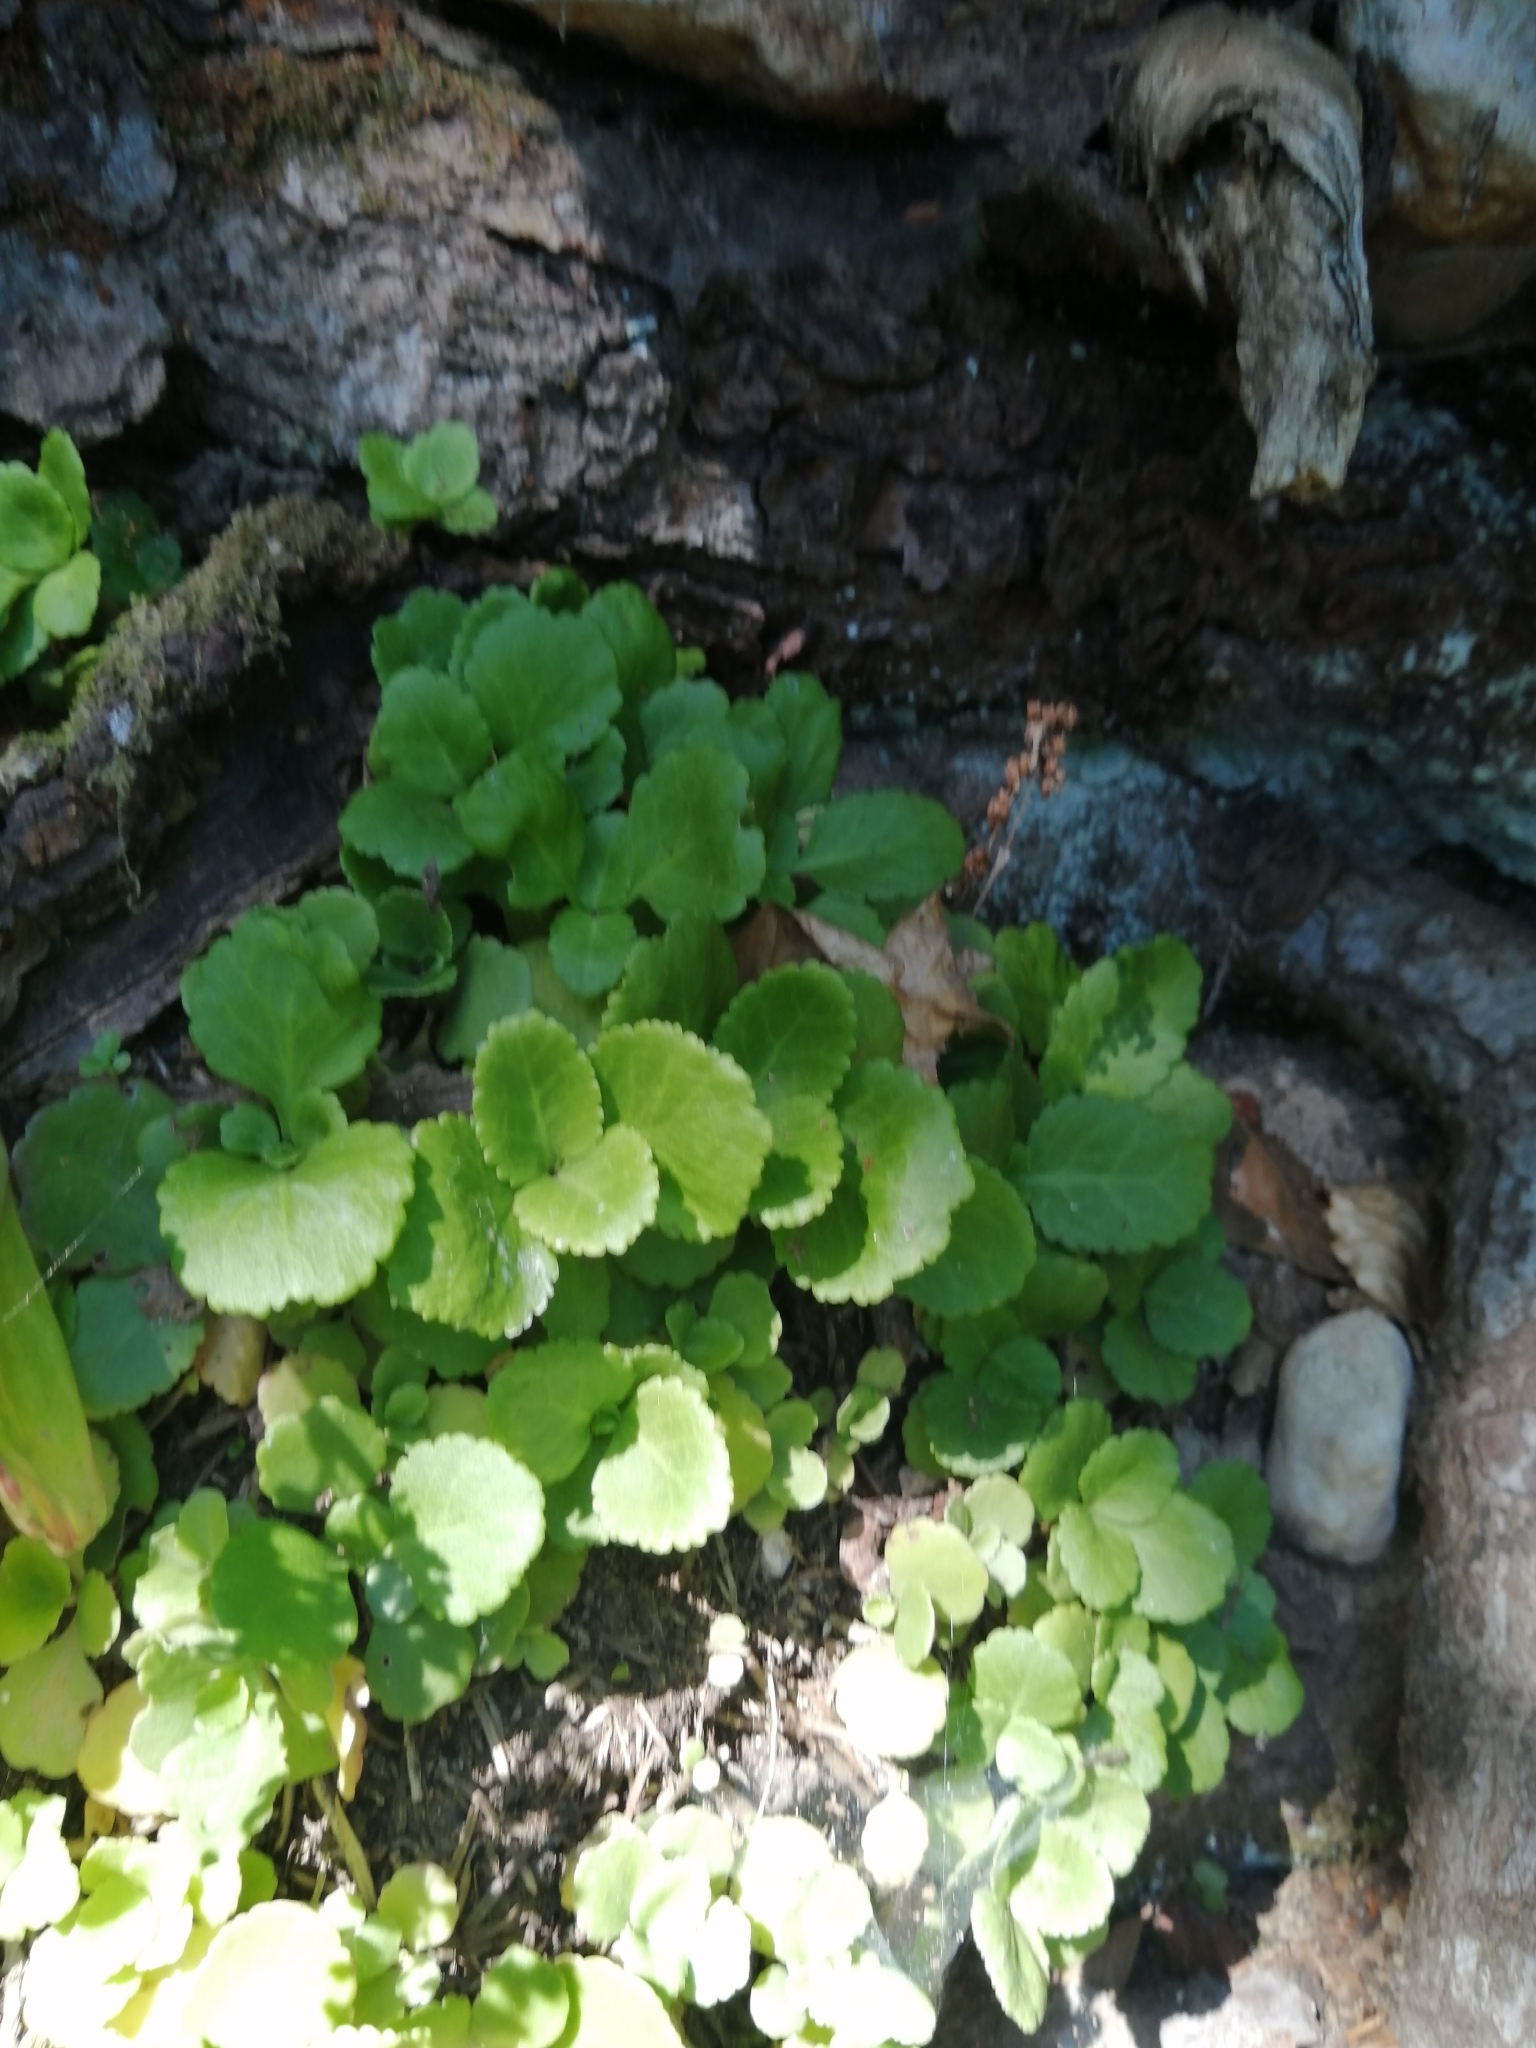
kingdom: Plantae
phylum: Tracheophyta
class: Magnoliopsida
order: Saxifragales
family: Crassulaceae
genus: Umbilicus
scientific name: Umbilicus oppositifolius
